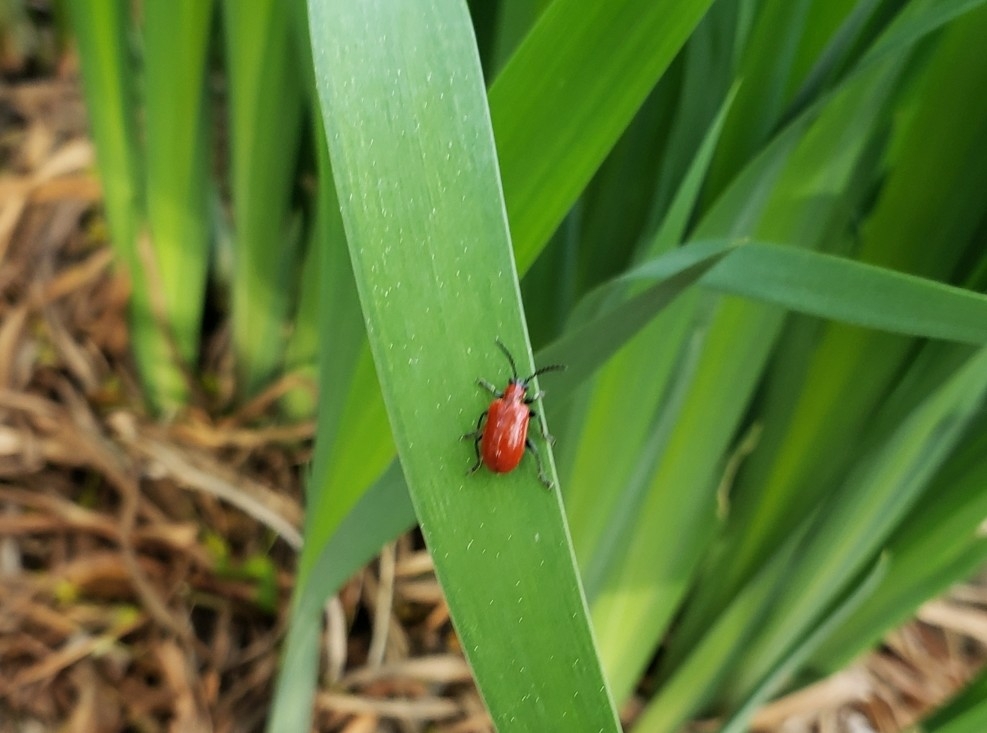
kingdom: Animalia
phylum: Arthropoda
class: Insecta
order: Coleoptera
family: Chrysomelidae
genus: Lilioceris
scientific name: Lilioceris lilii
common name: Lily beetle
